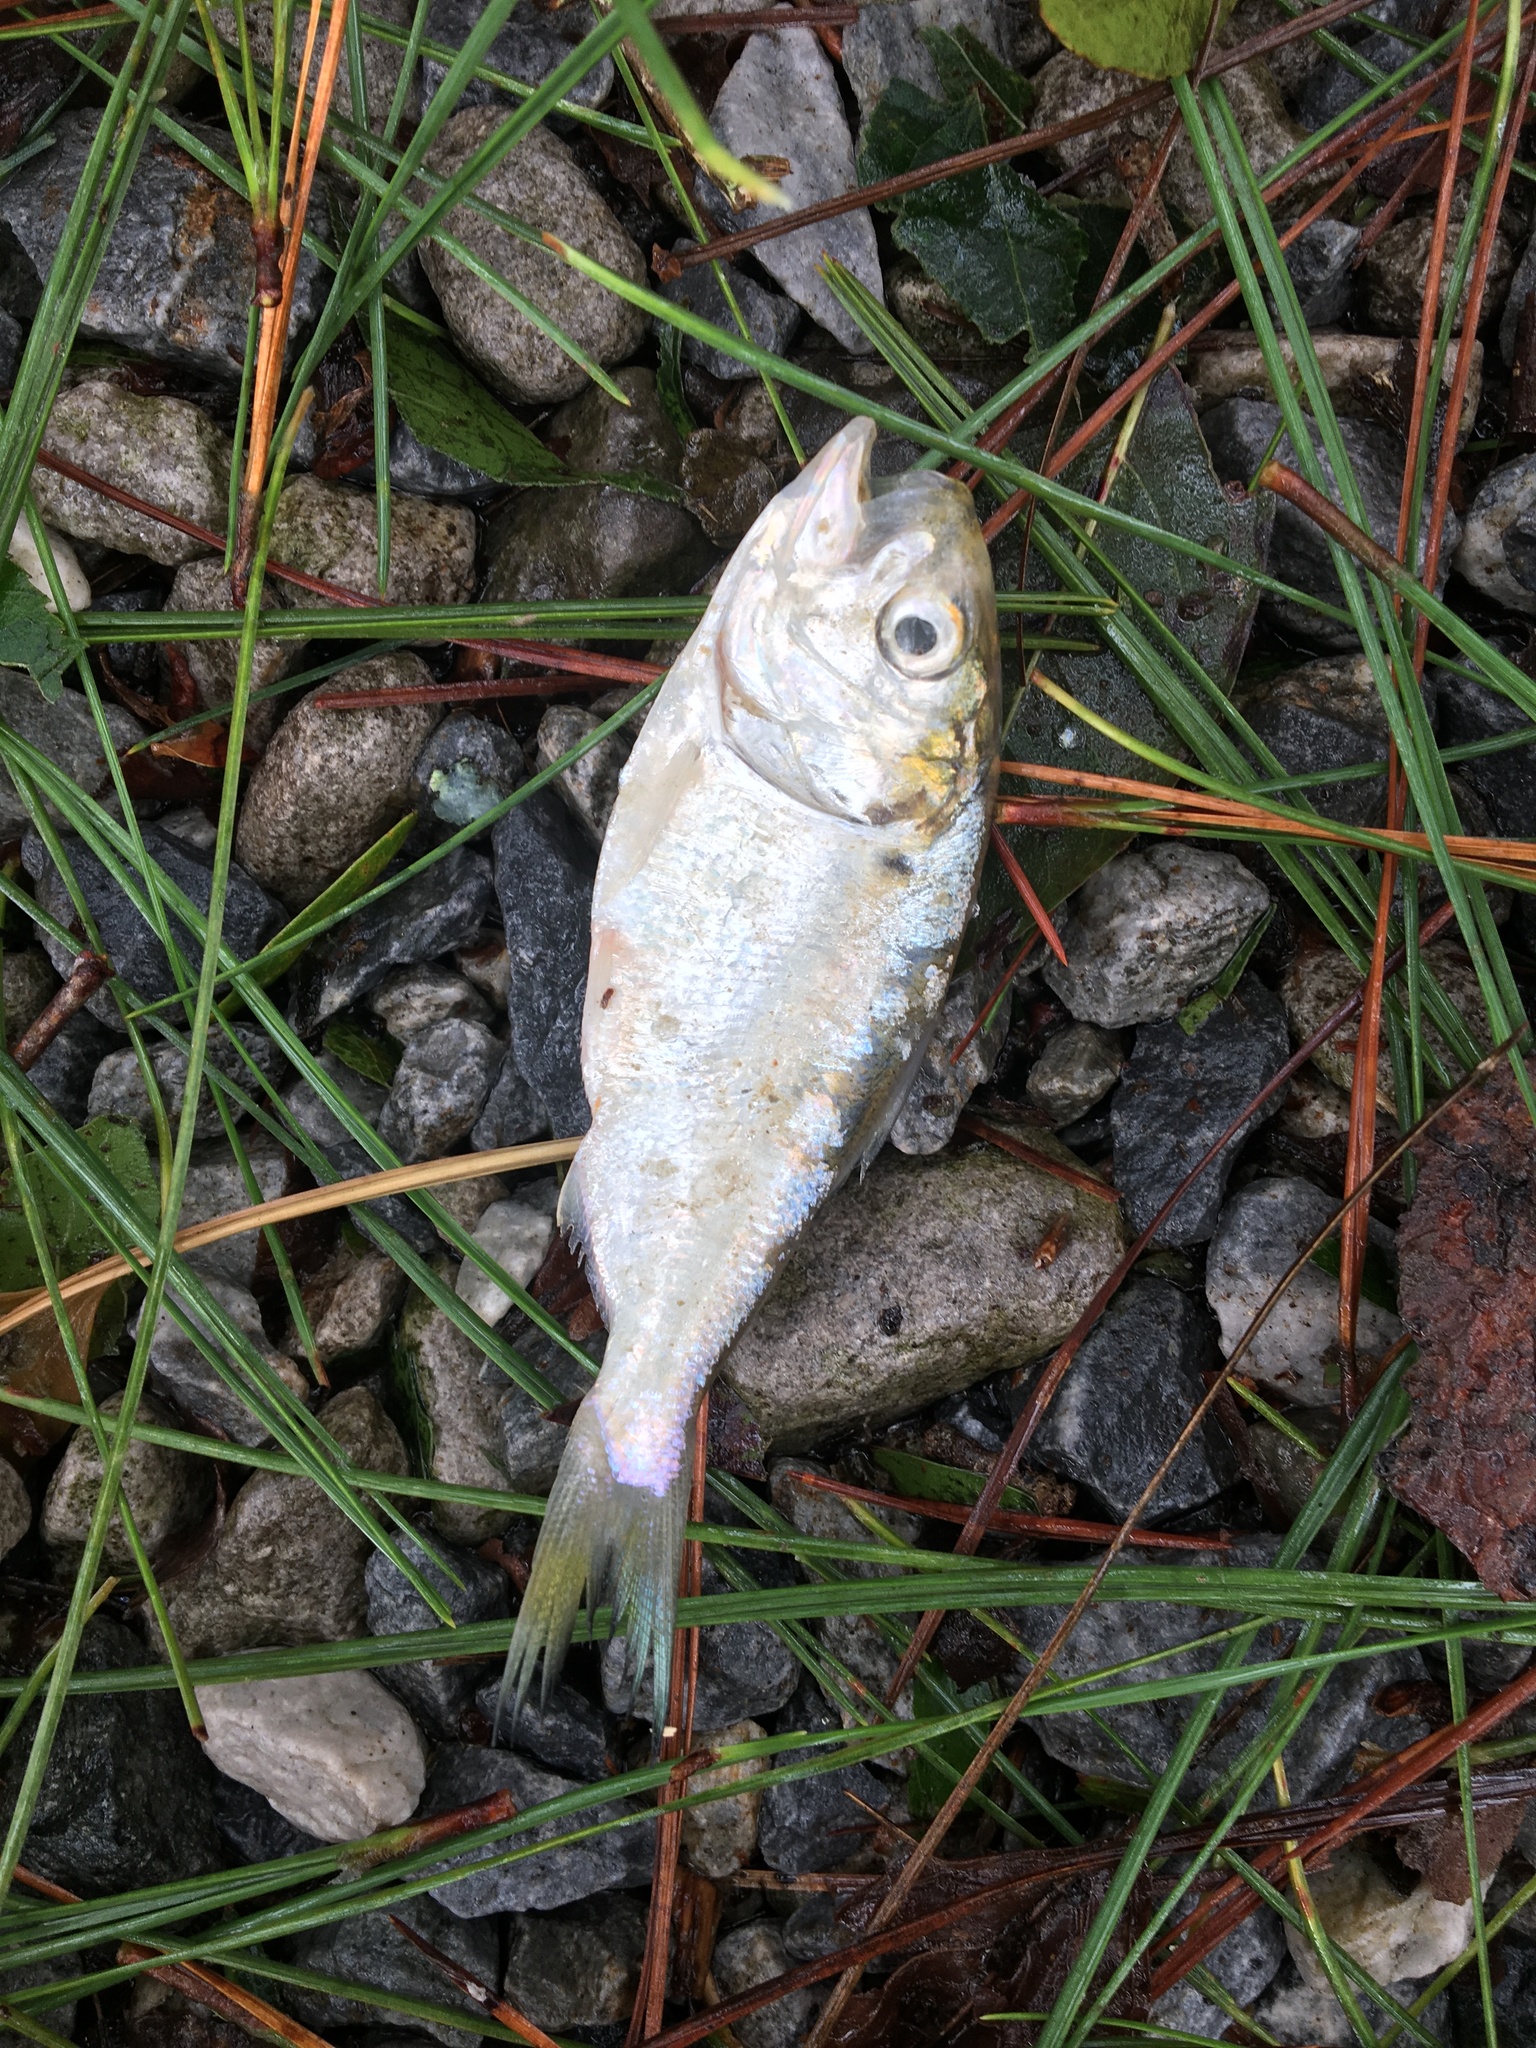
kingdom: Animalia
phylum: Chordata
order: Clupeiformes
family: Clupeidae
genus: Brevoortia
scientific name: Brevoortia
